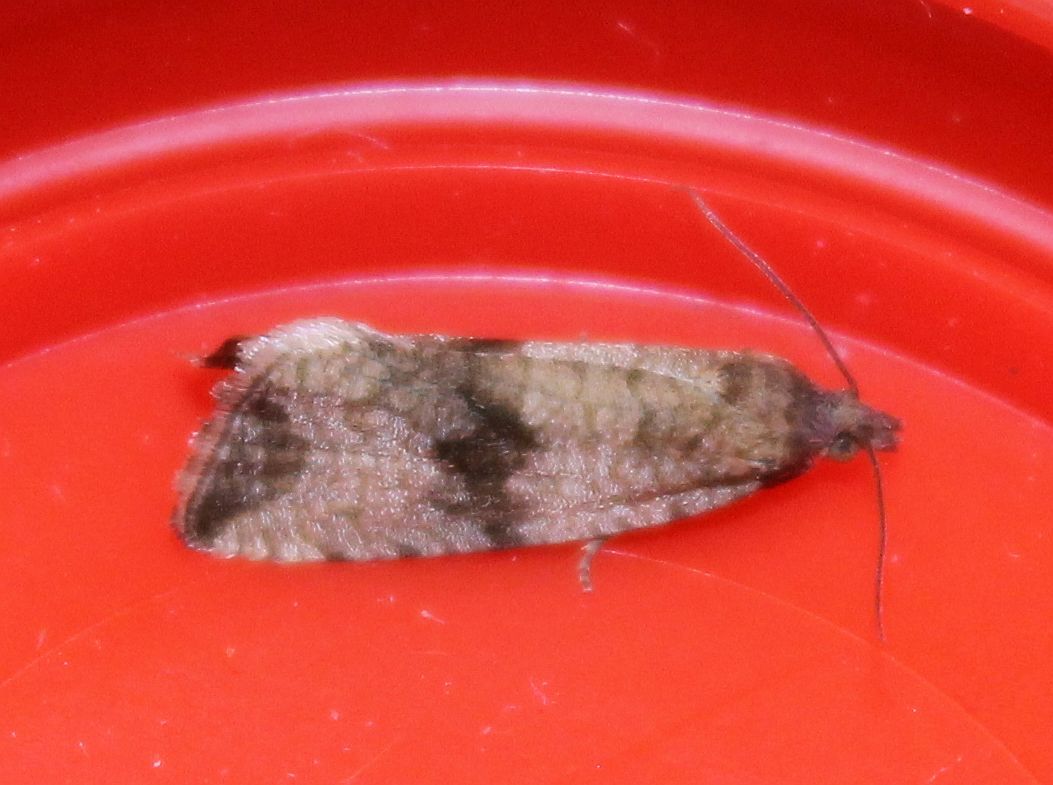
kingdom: Animalia
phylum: Arthropoda
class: Insecta
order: Lepidoptera
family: Tortricidae
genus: Celypha
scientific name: Celypha striana
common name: Barred marble
